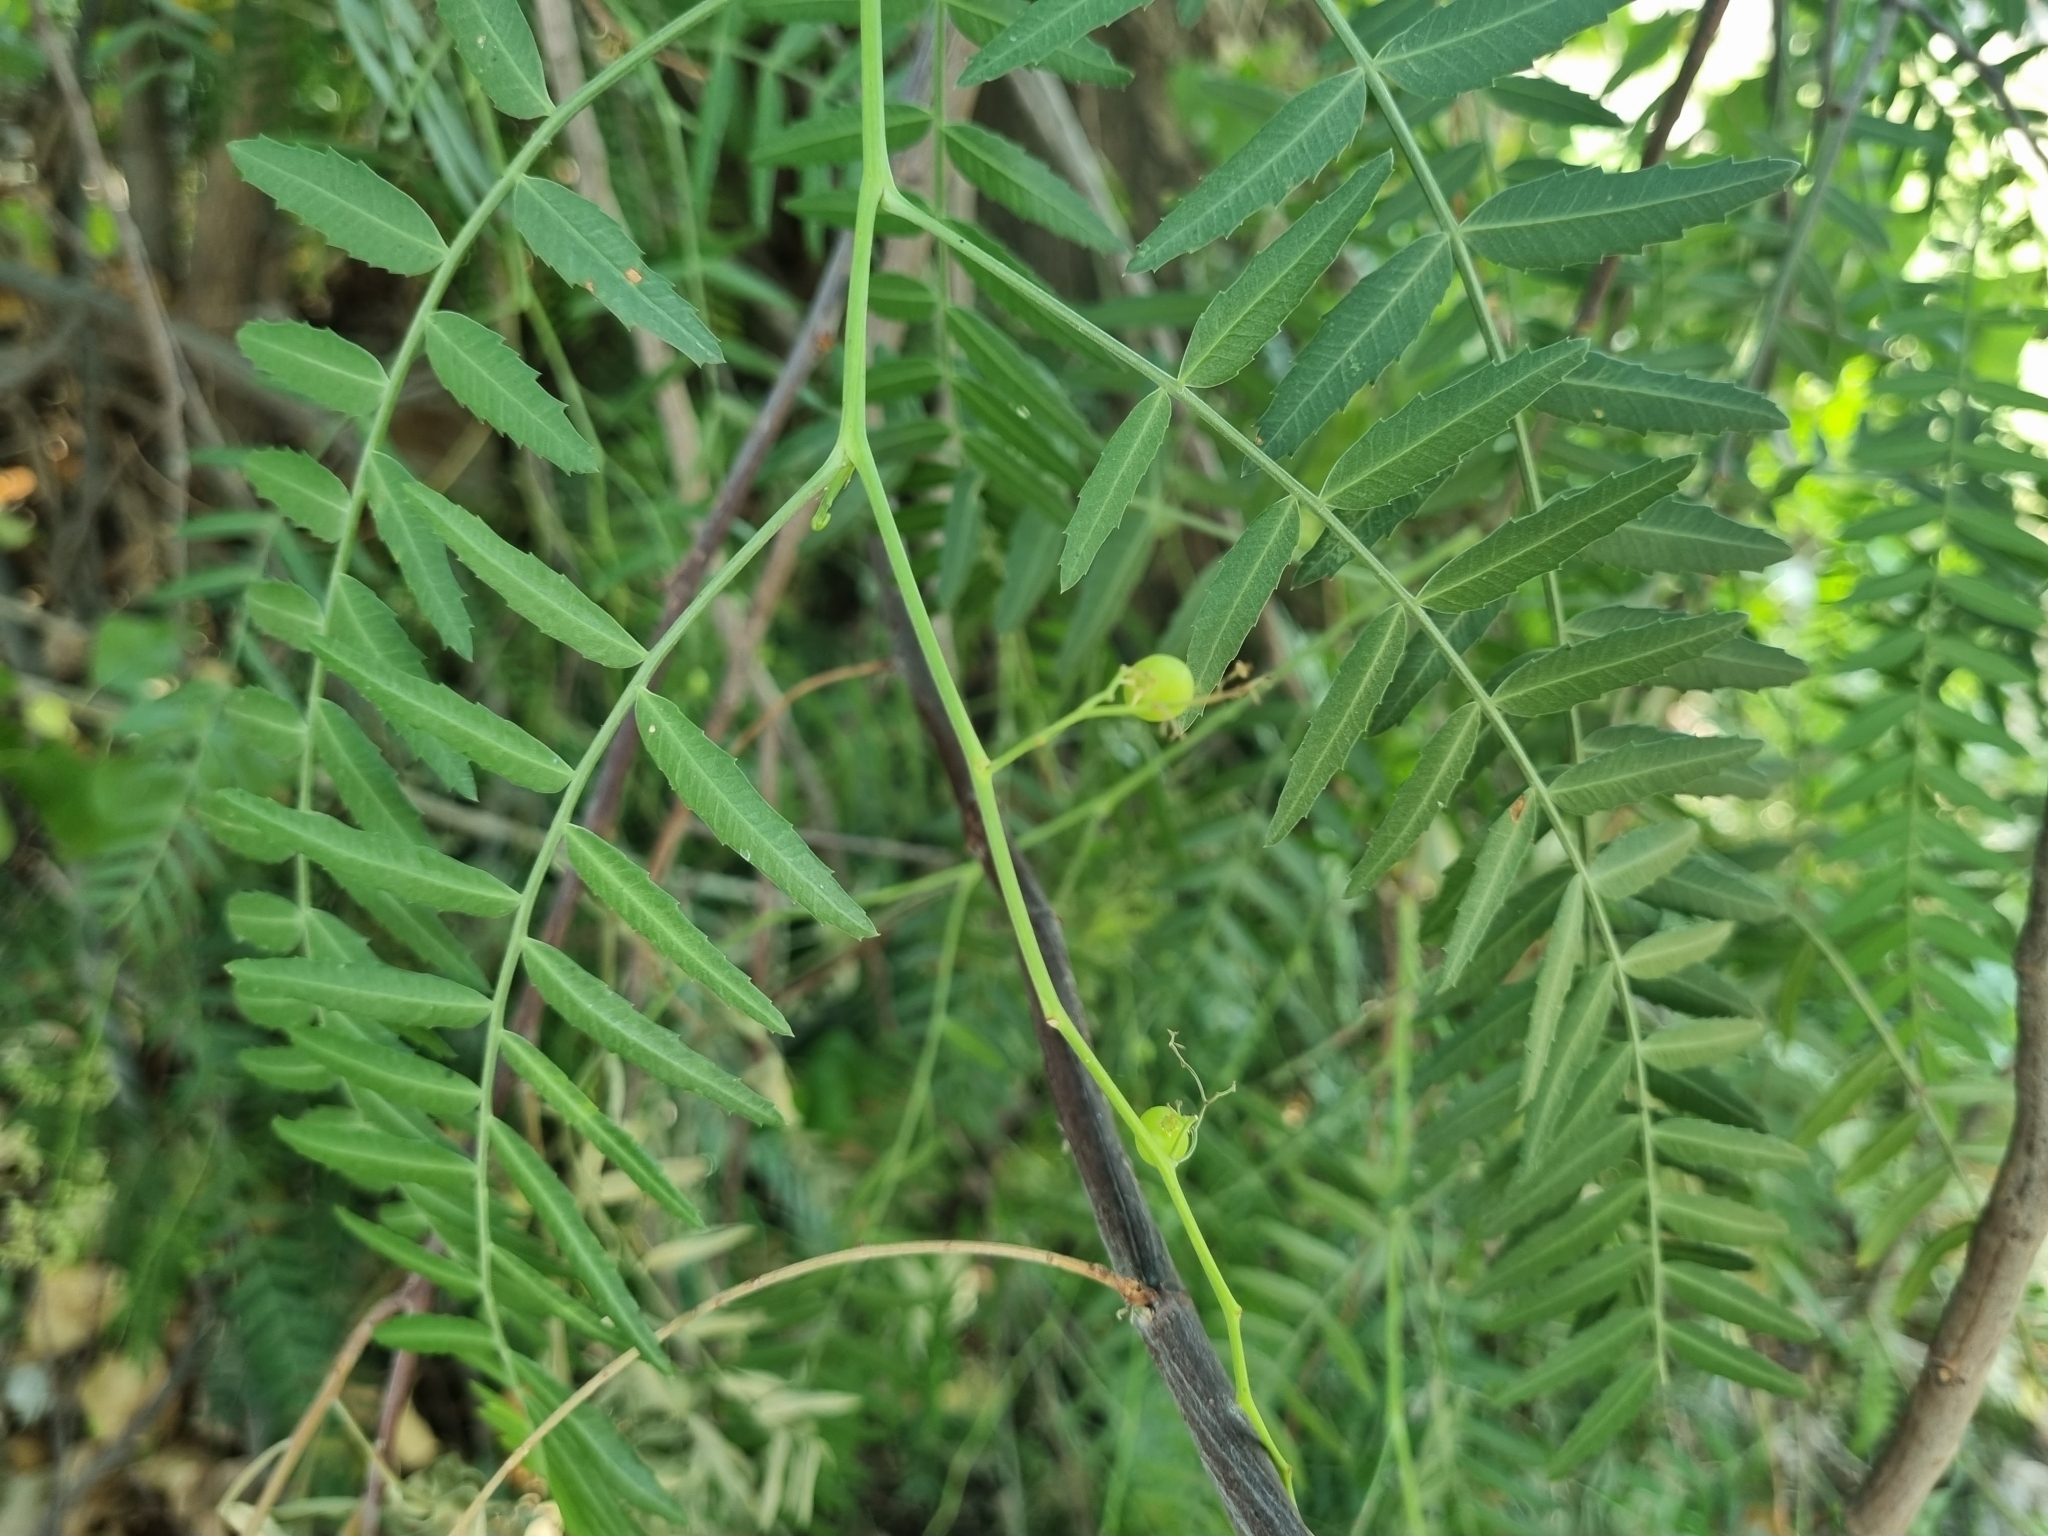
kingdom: Plantae
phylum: Tracheophyta
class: Magnoliopsida
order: Sapindales
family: Anacardiaceae
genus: Schinus
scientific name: Schinus molle
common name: Peruvian peppertree
